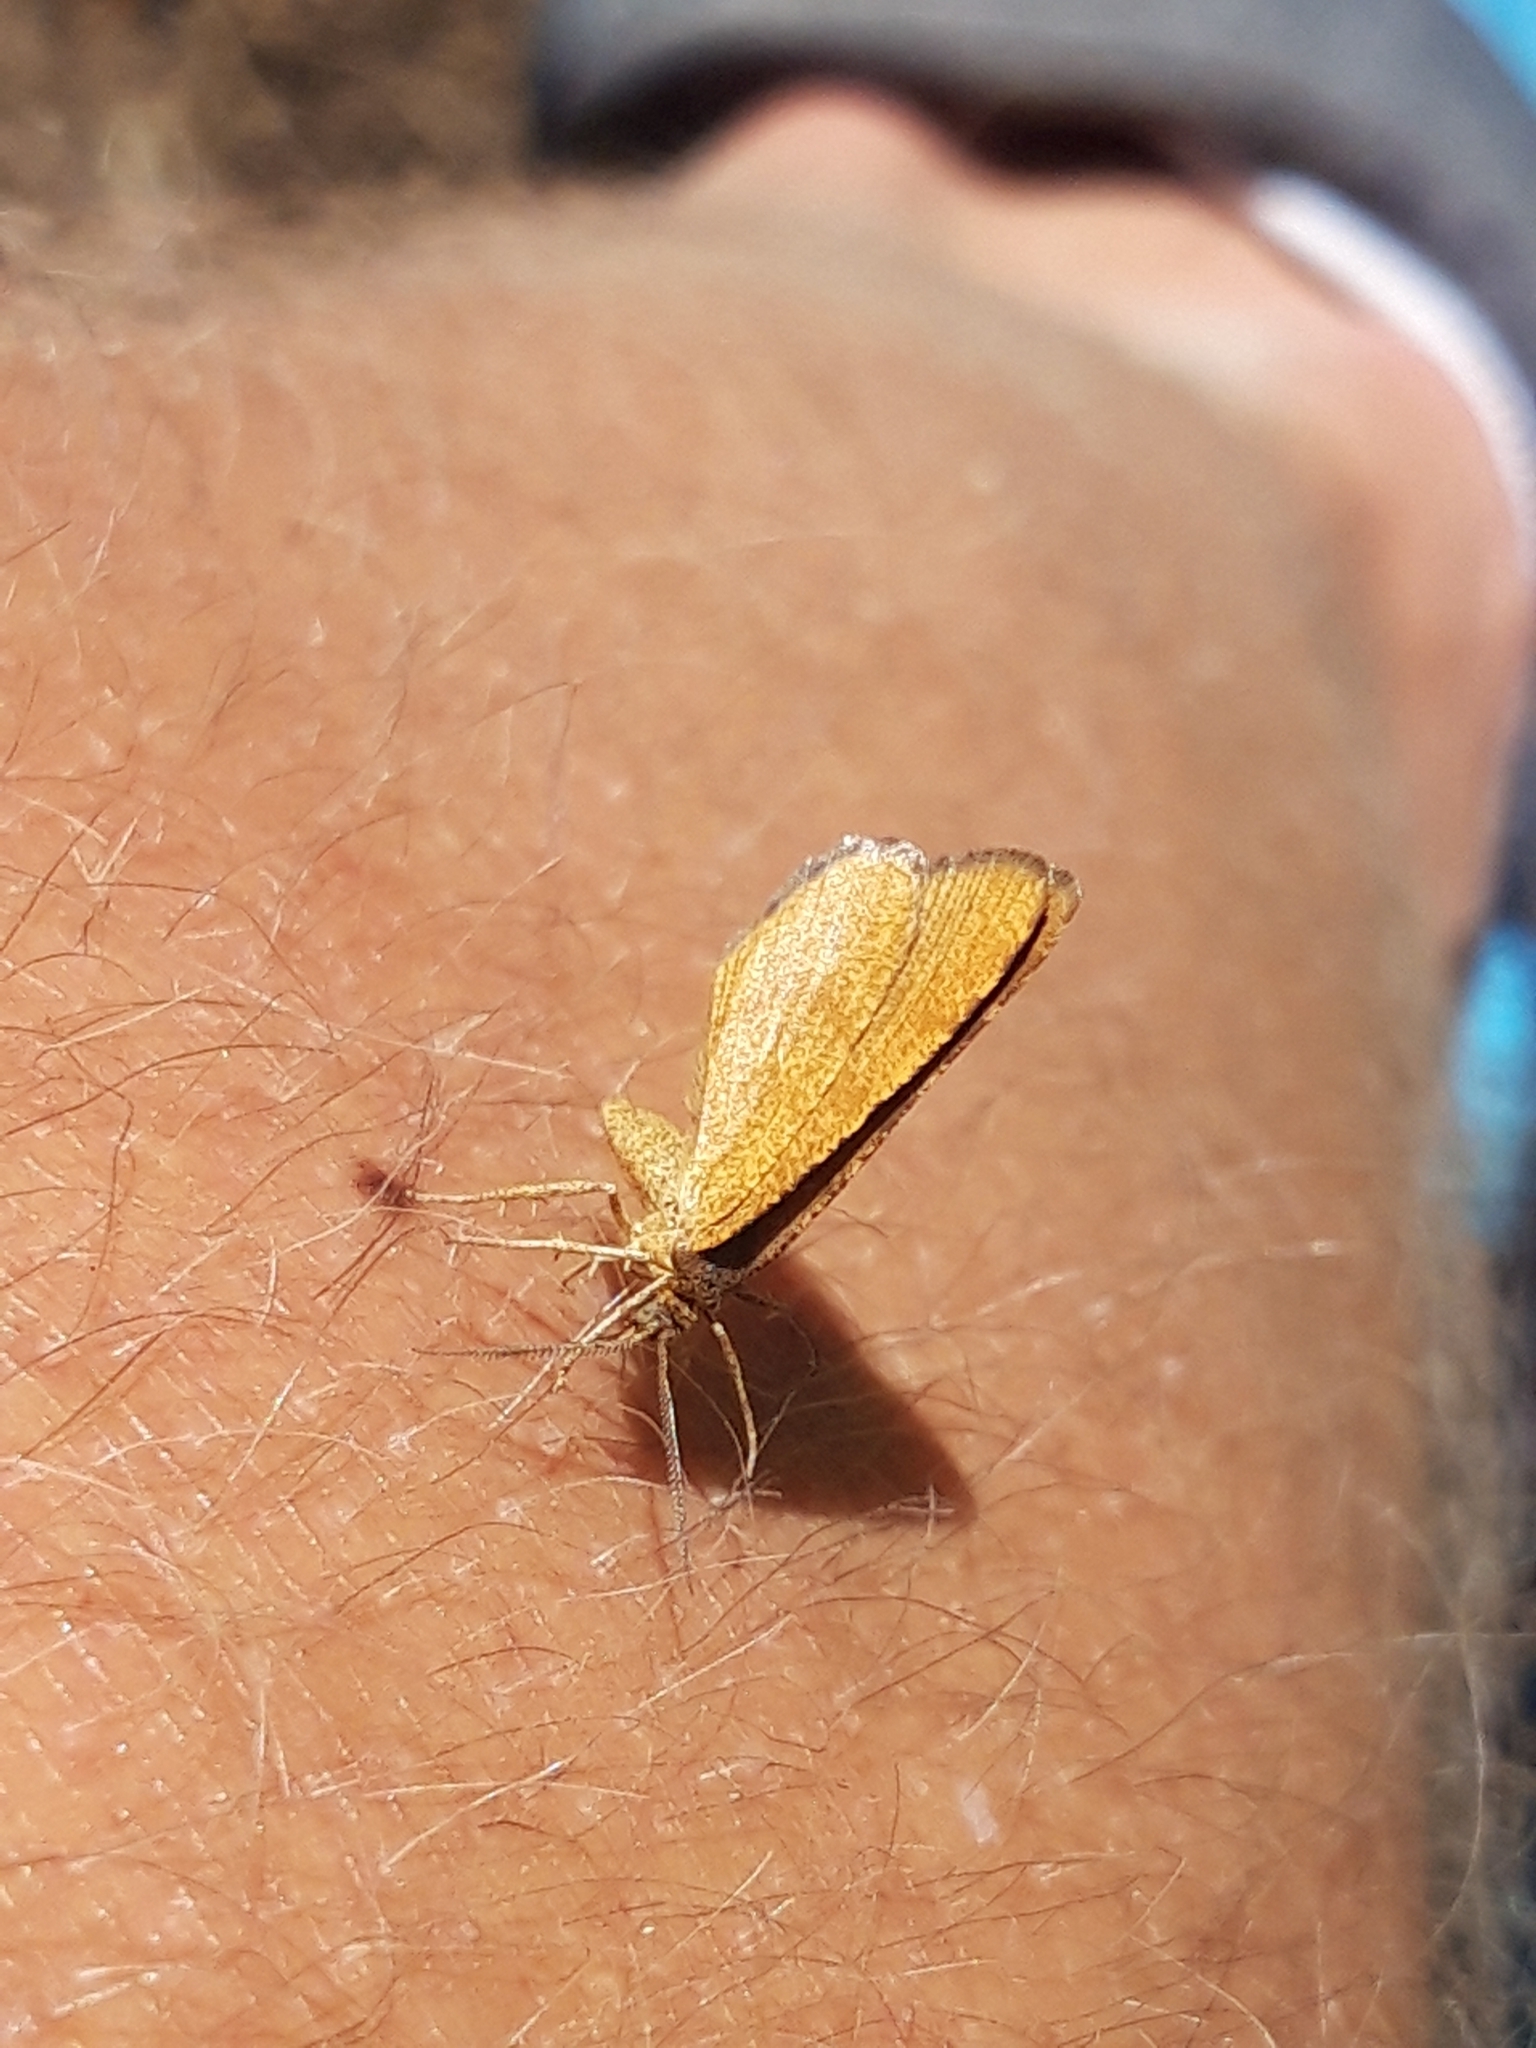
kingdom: Animalia
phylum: Arthropoda
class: Insecta
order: Lepidoptera
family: Geometridae
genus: Macaria
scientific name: Macaria brunneata
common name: Rannoch looper
